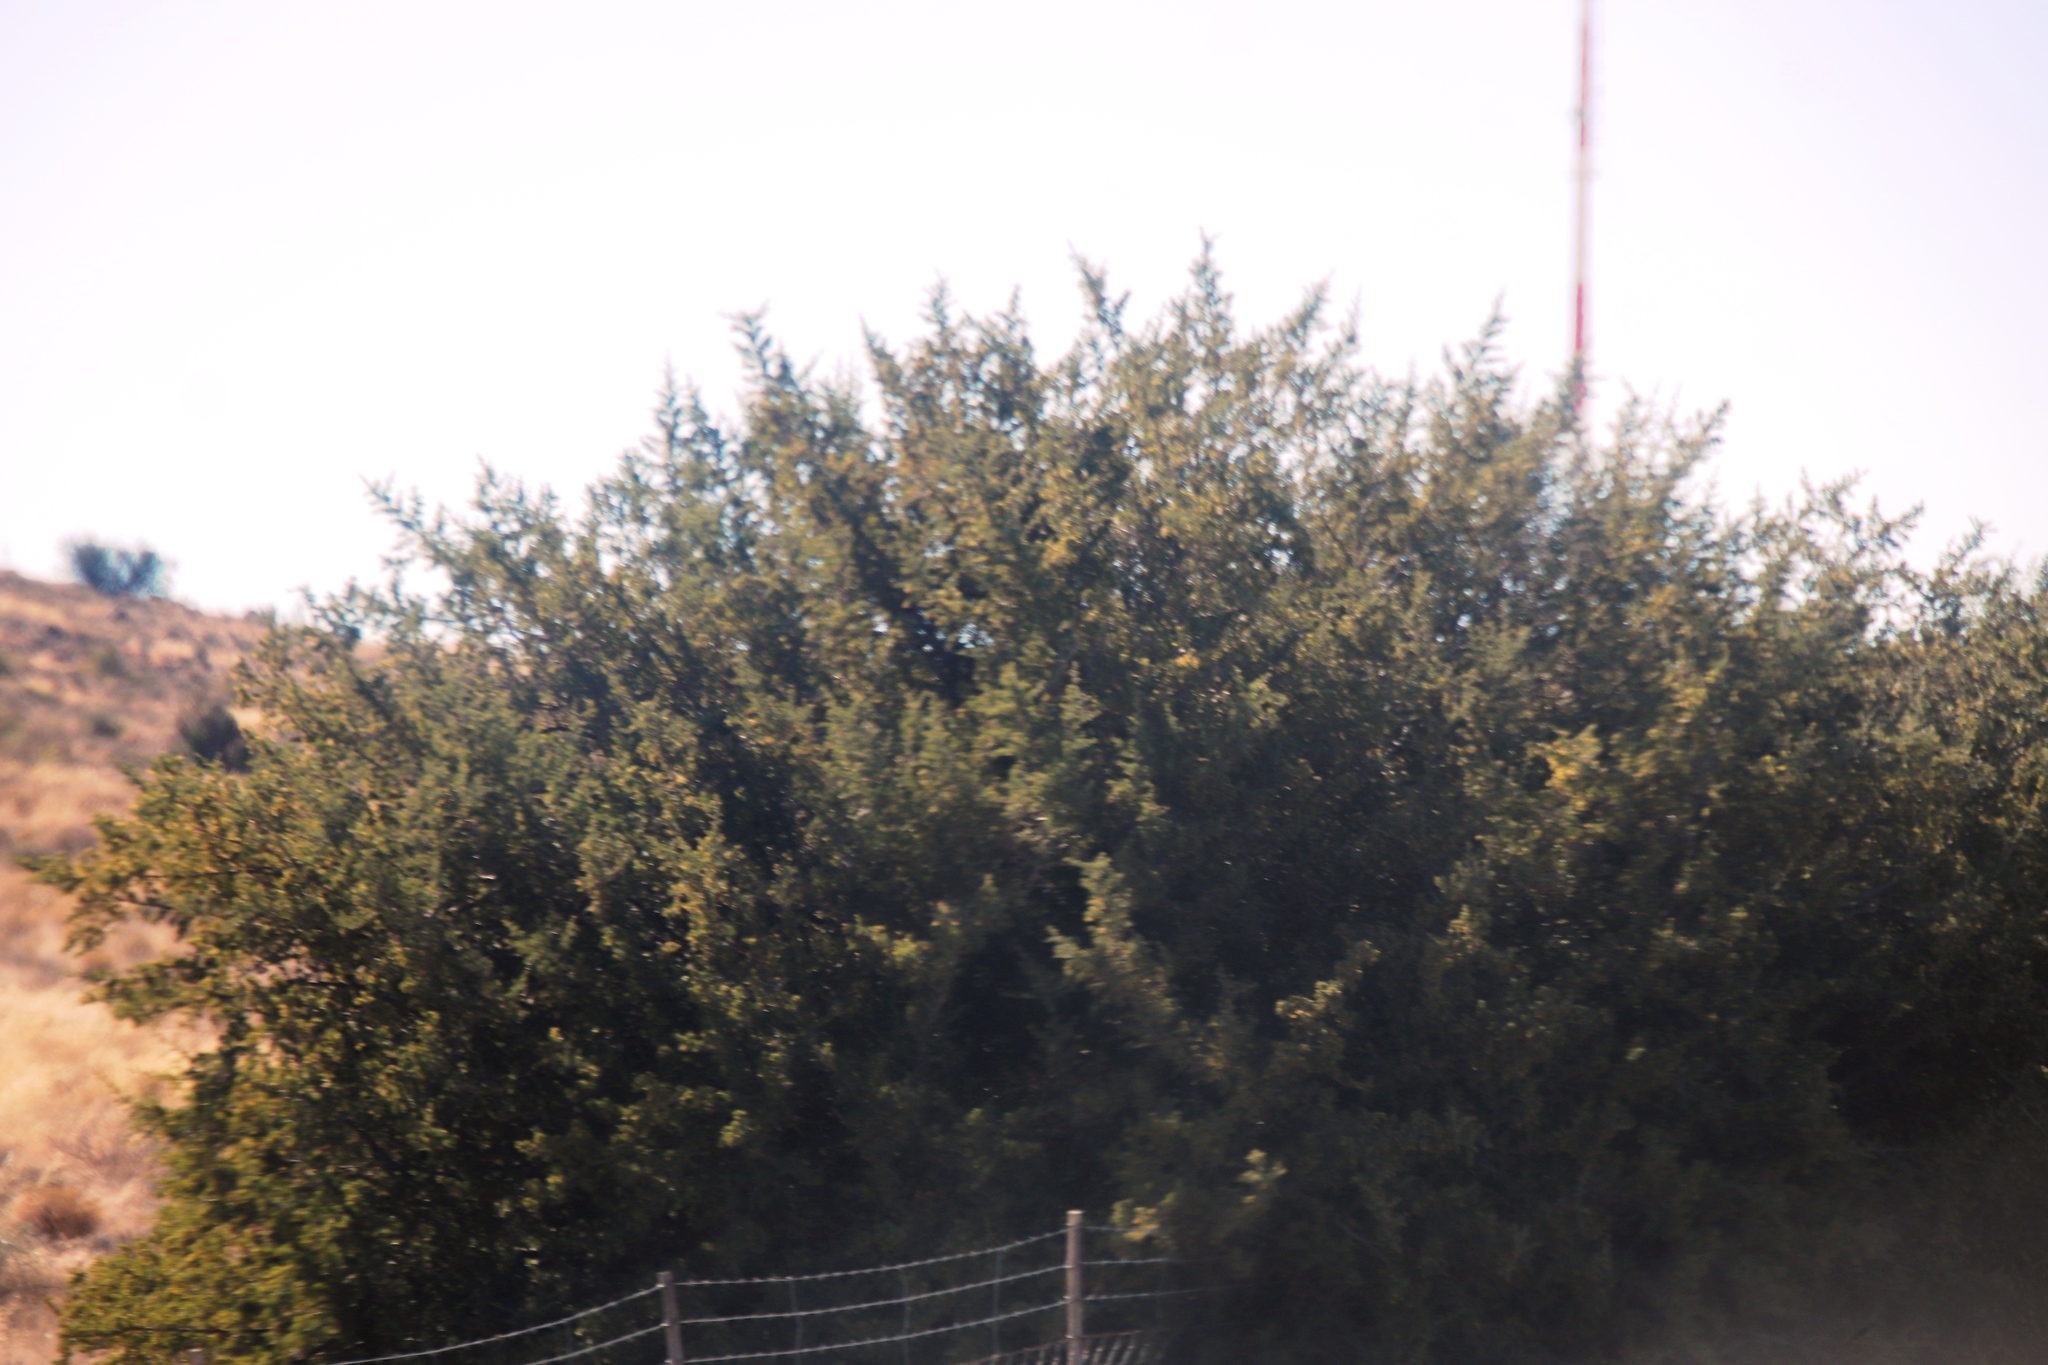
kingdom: Plantae
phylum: Tracheophyta
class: Magnoliopsida
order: Fabales
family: Fabaceae
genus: Vachellia
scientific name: Vachellia karroo
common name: Sweet thorn
